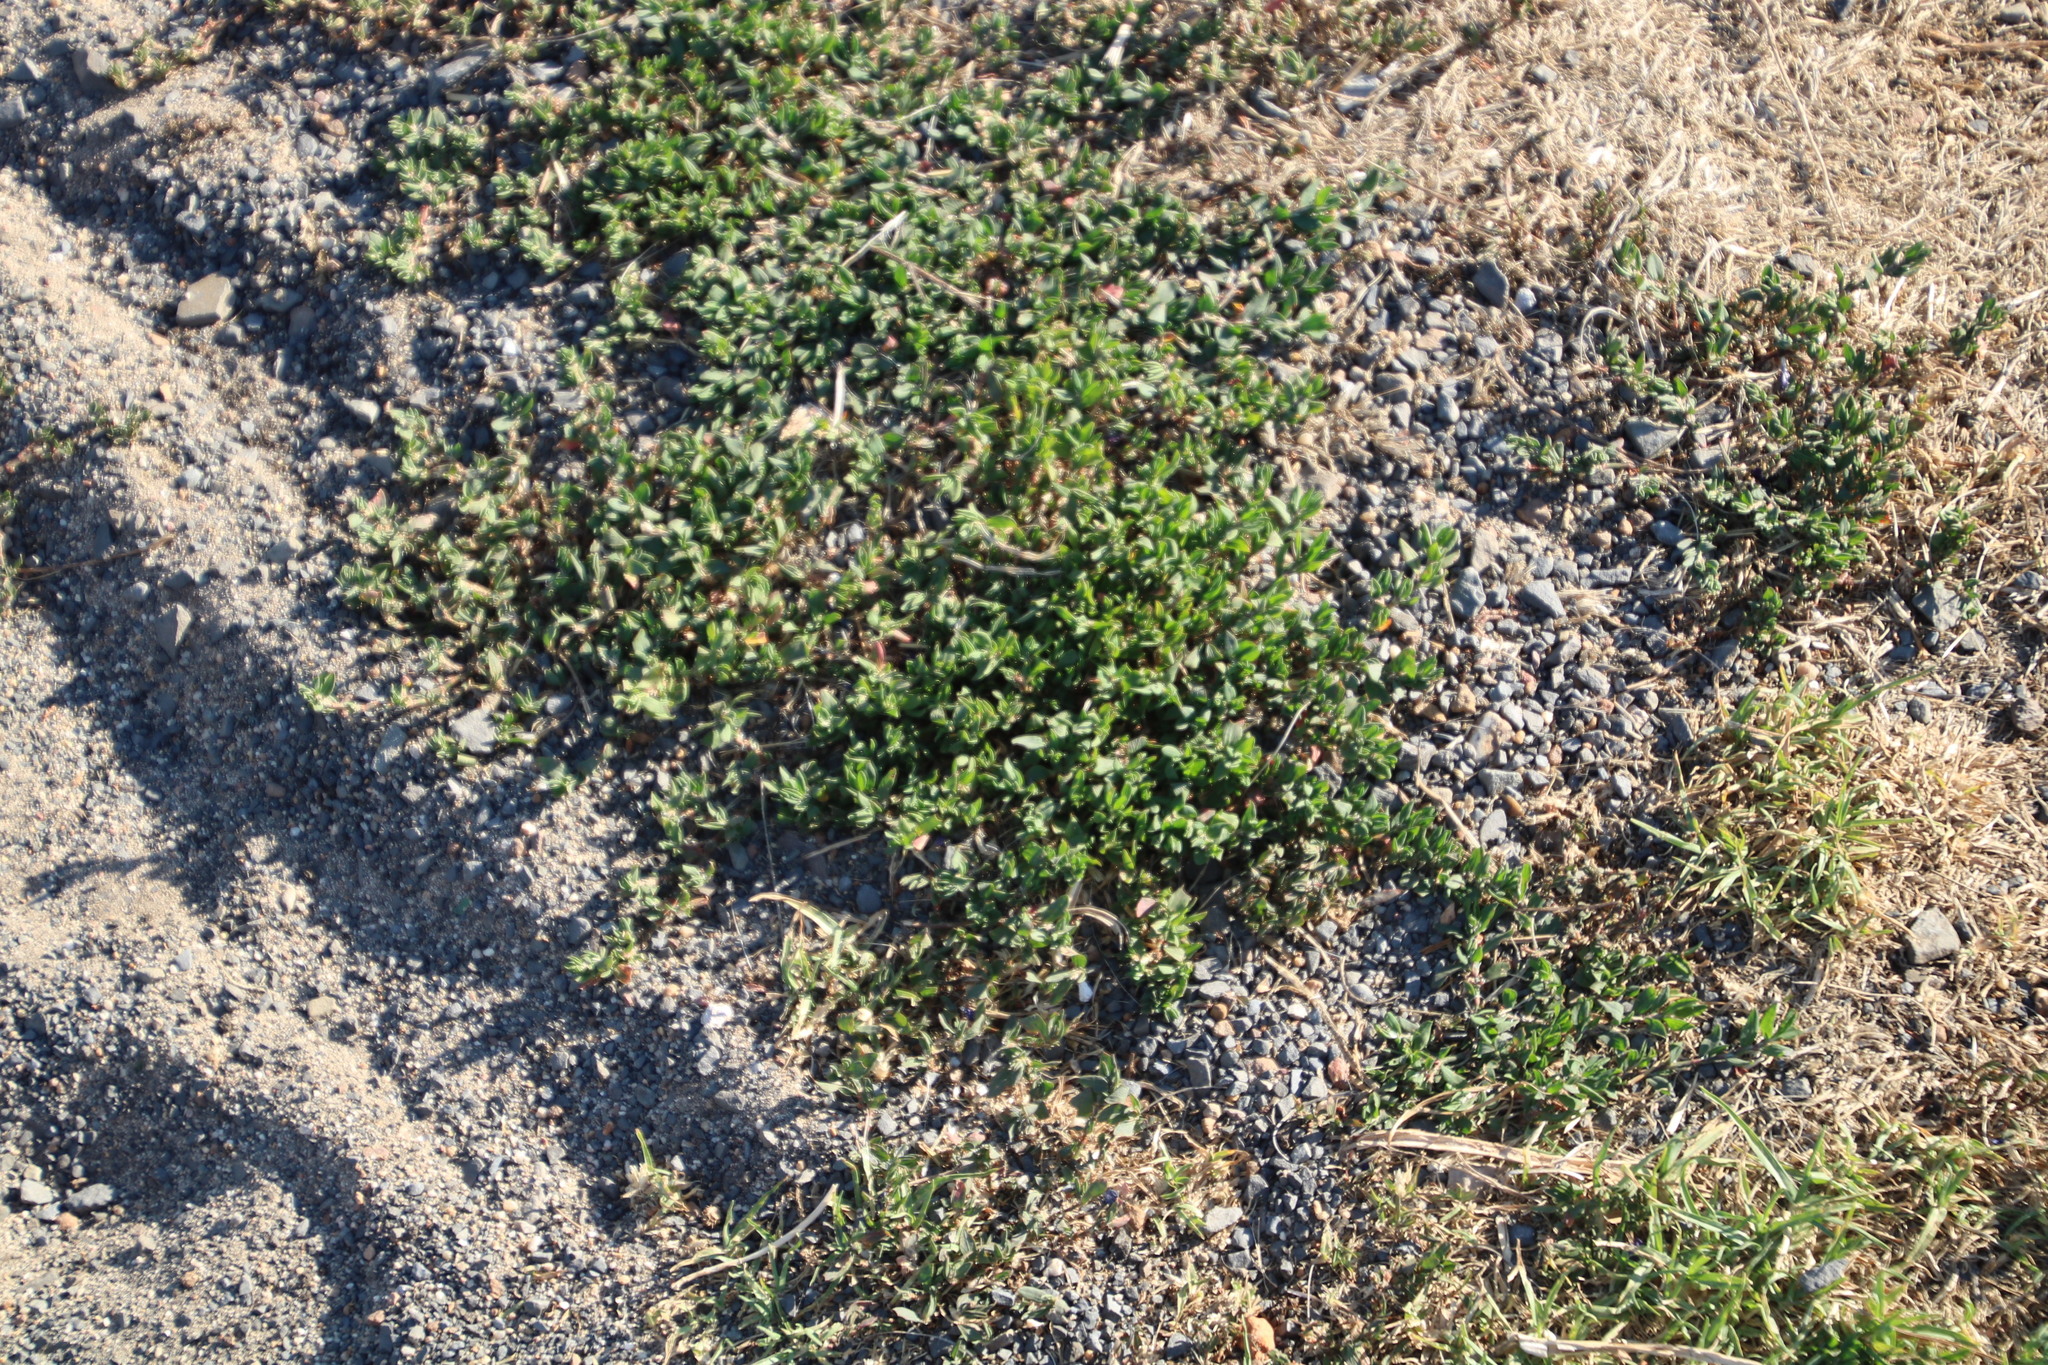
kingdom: Plantae
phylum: Tracheophyta
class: Magnoliopsida
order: Caryophyllales
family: Polygonaceae
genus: Polygonum
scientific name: Polygonum aviculare
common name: Prostrate knotweed
